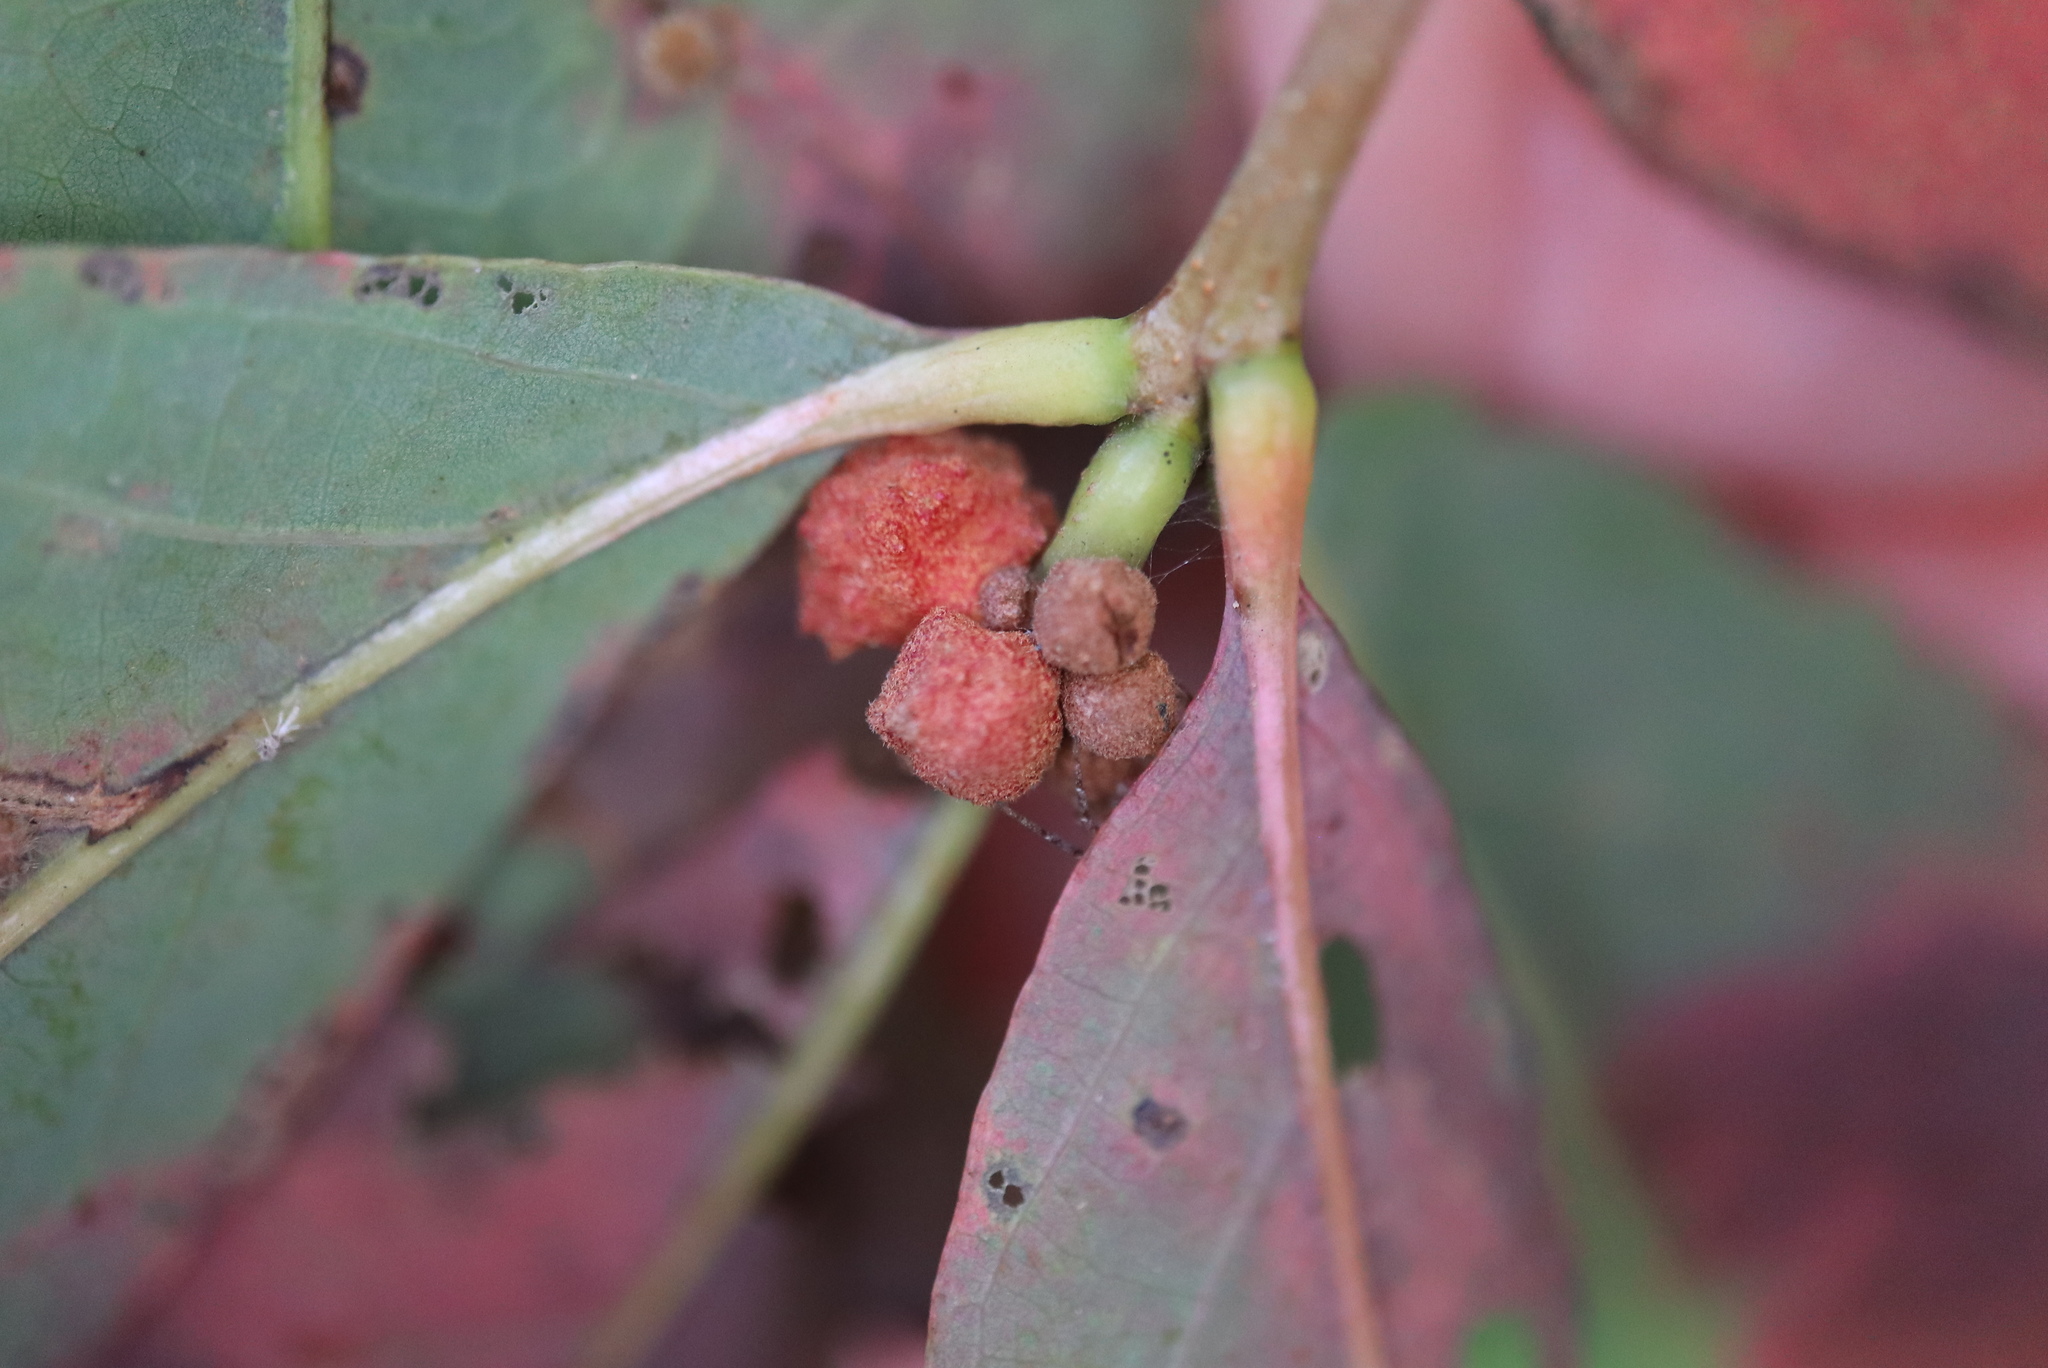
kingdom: Animalia
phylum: Arthropoda
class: Insecta
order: Hymenoptera
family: Cynipidae
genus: Andricus
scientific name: Andricus
